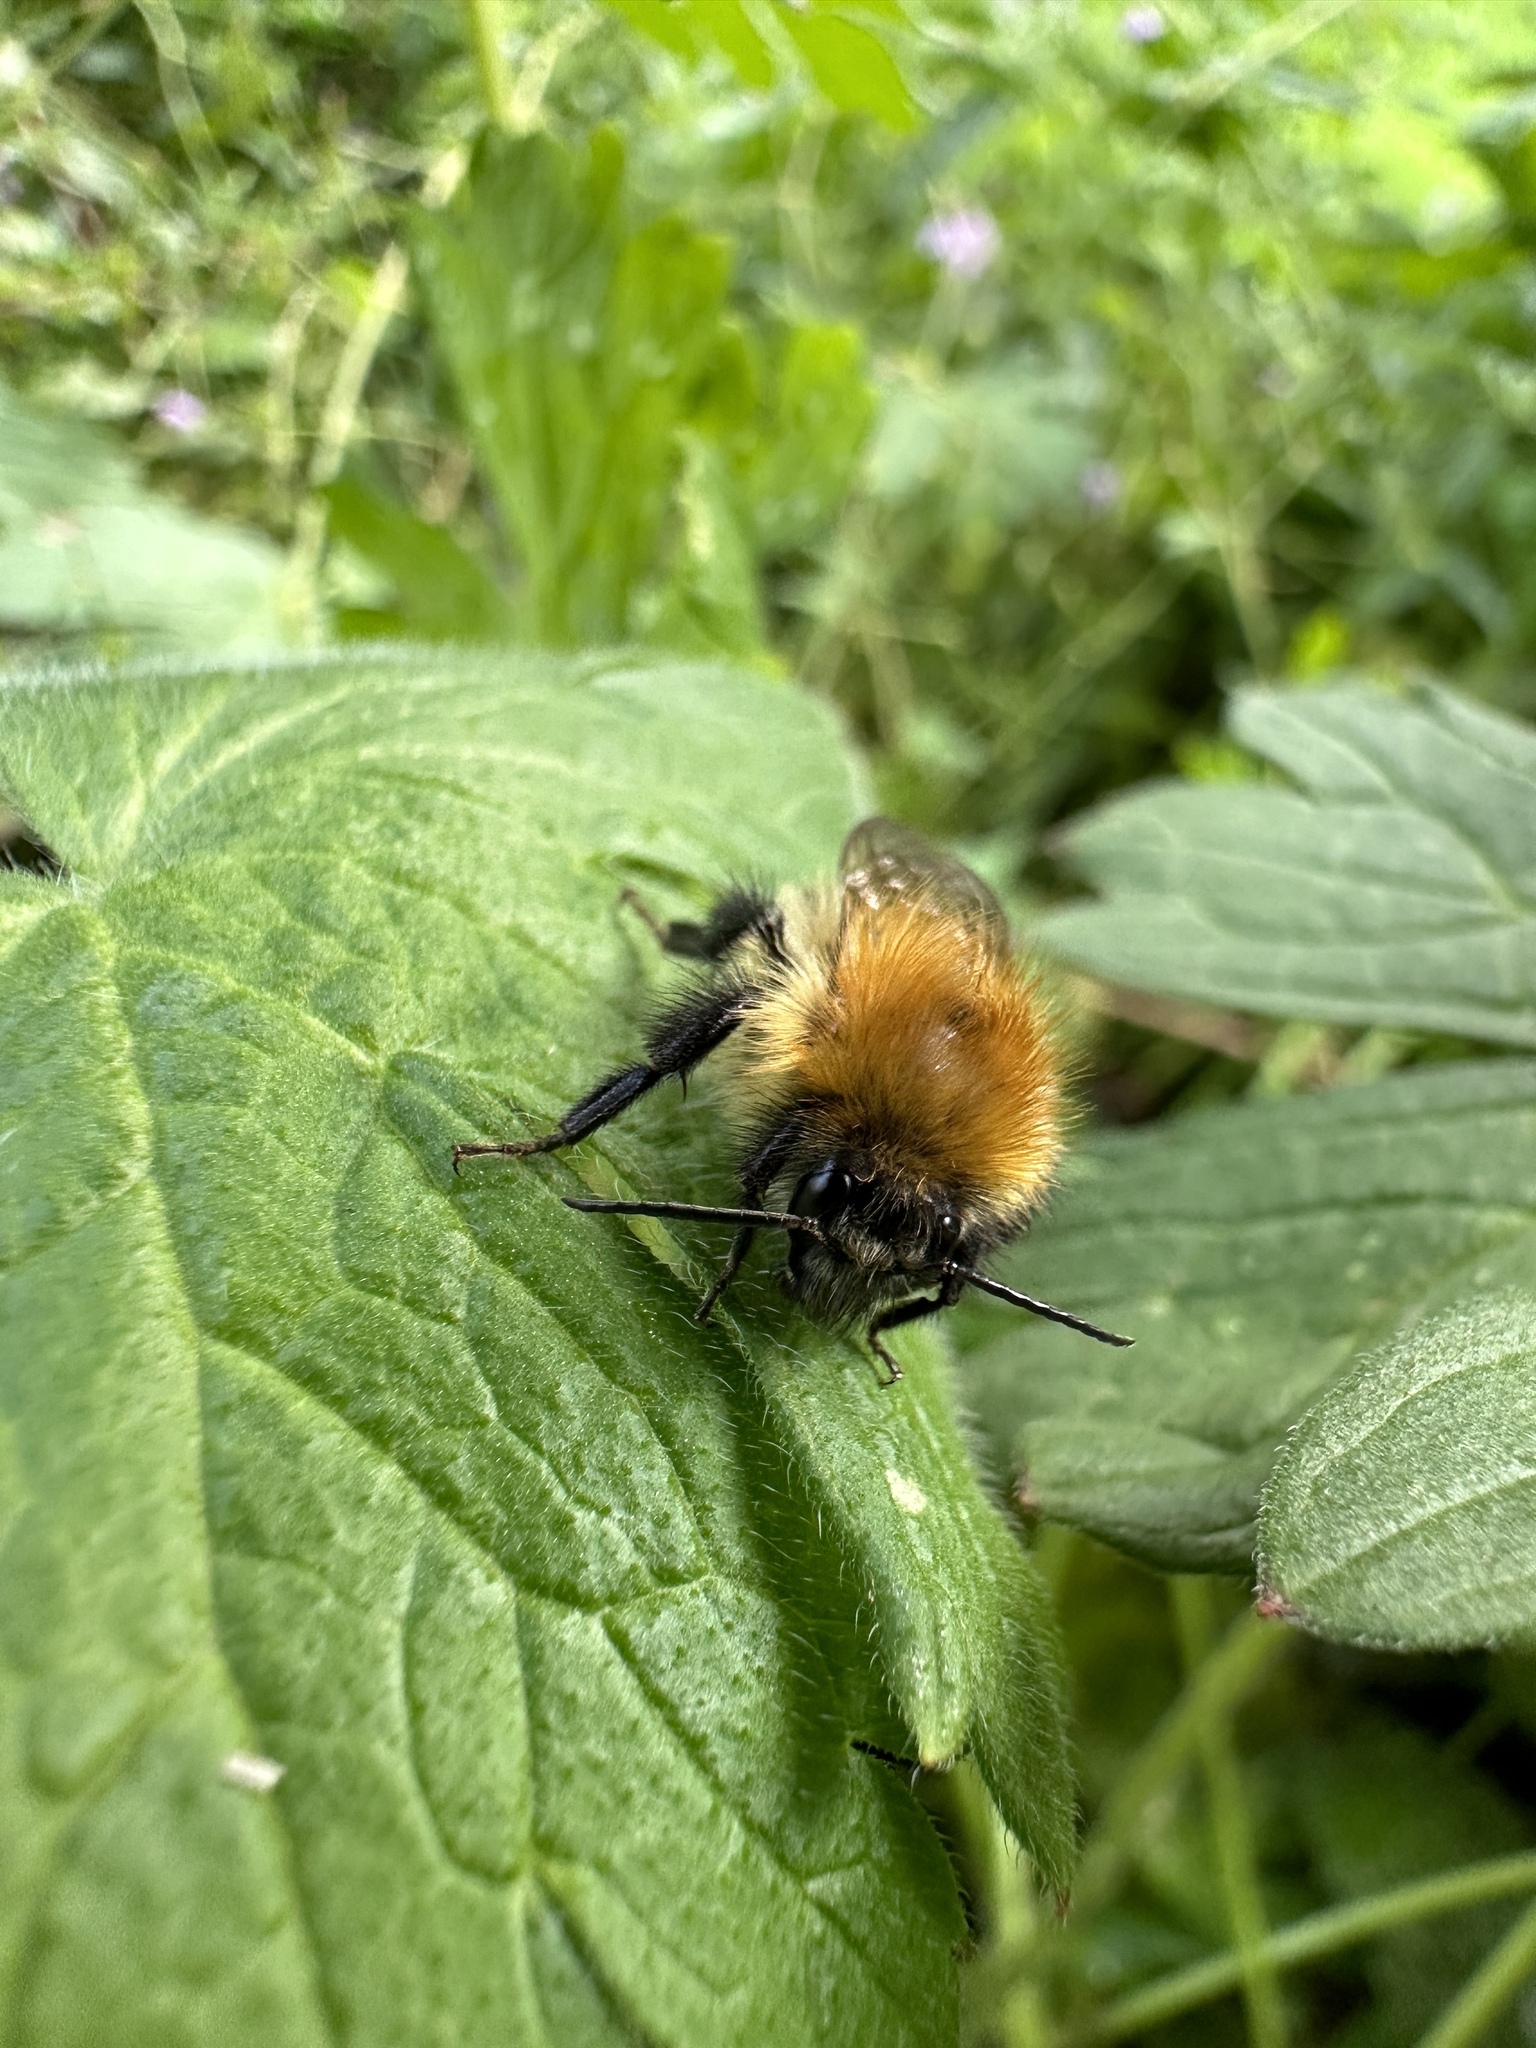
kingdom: Animalia
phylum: Arthropoda
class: Insecta
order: Hymenoptera
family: Apidae
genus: Bombus
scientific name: Bombus pascuorum
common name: Common carder bee
